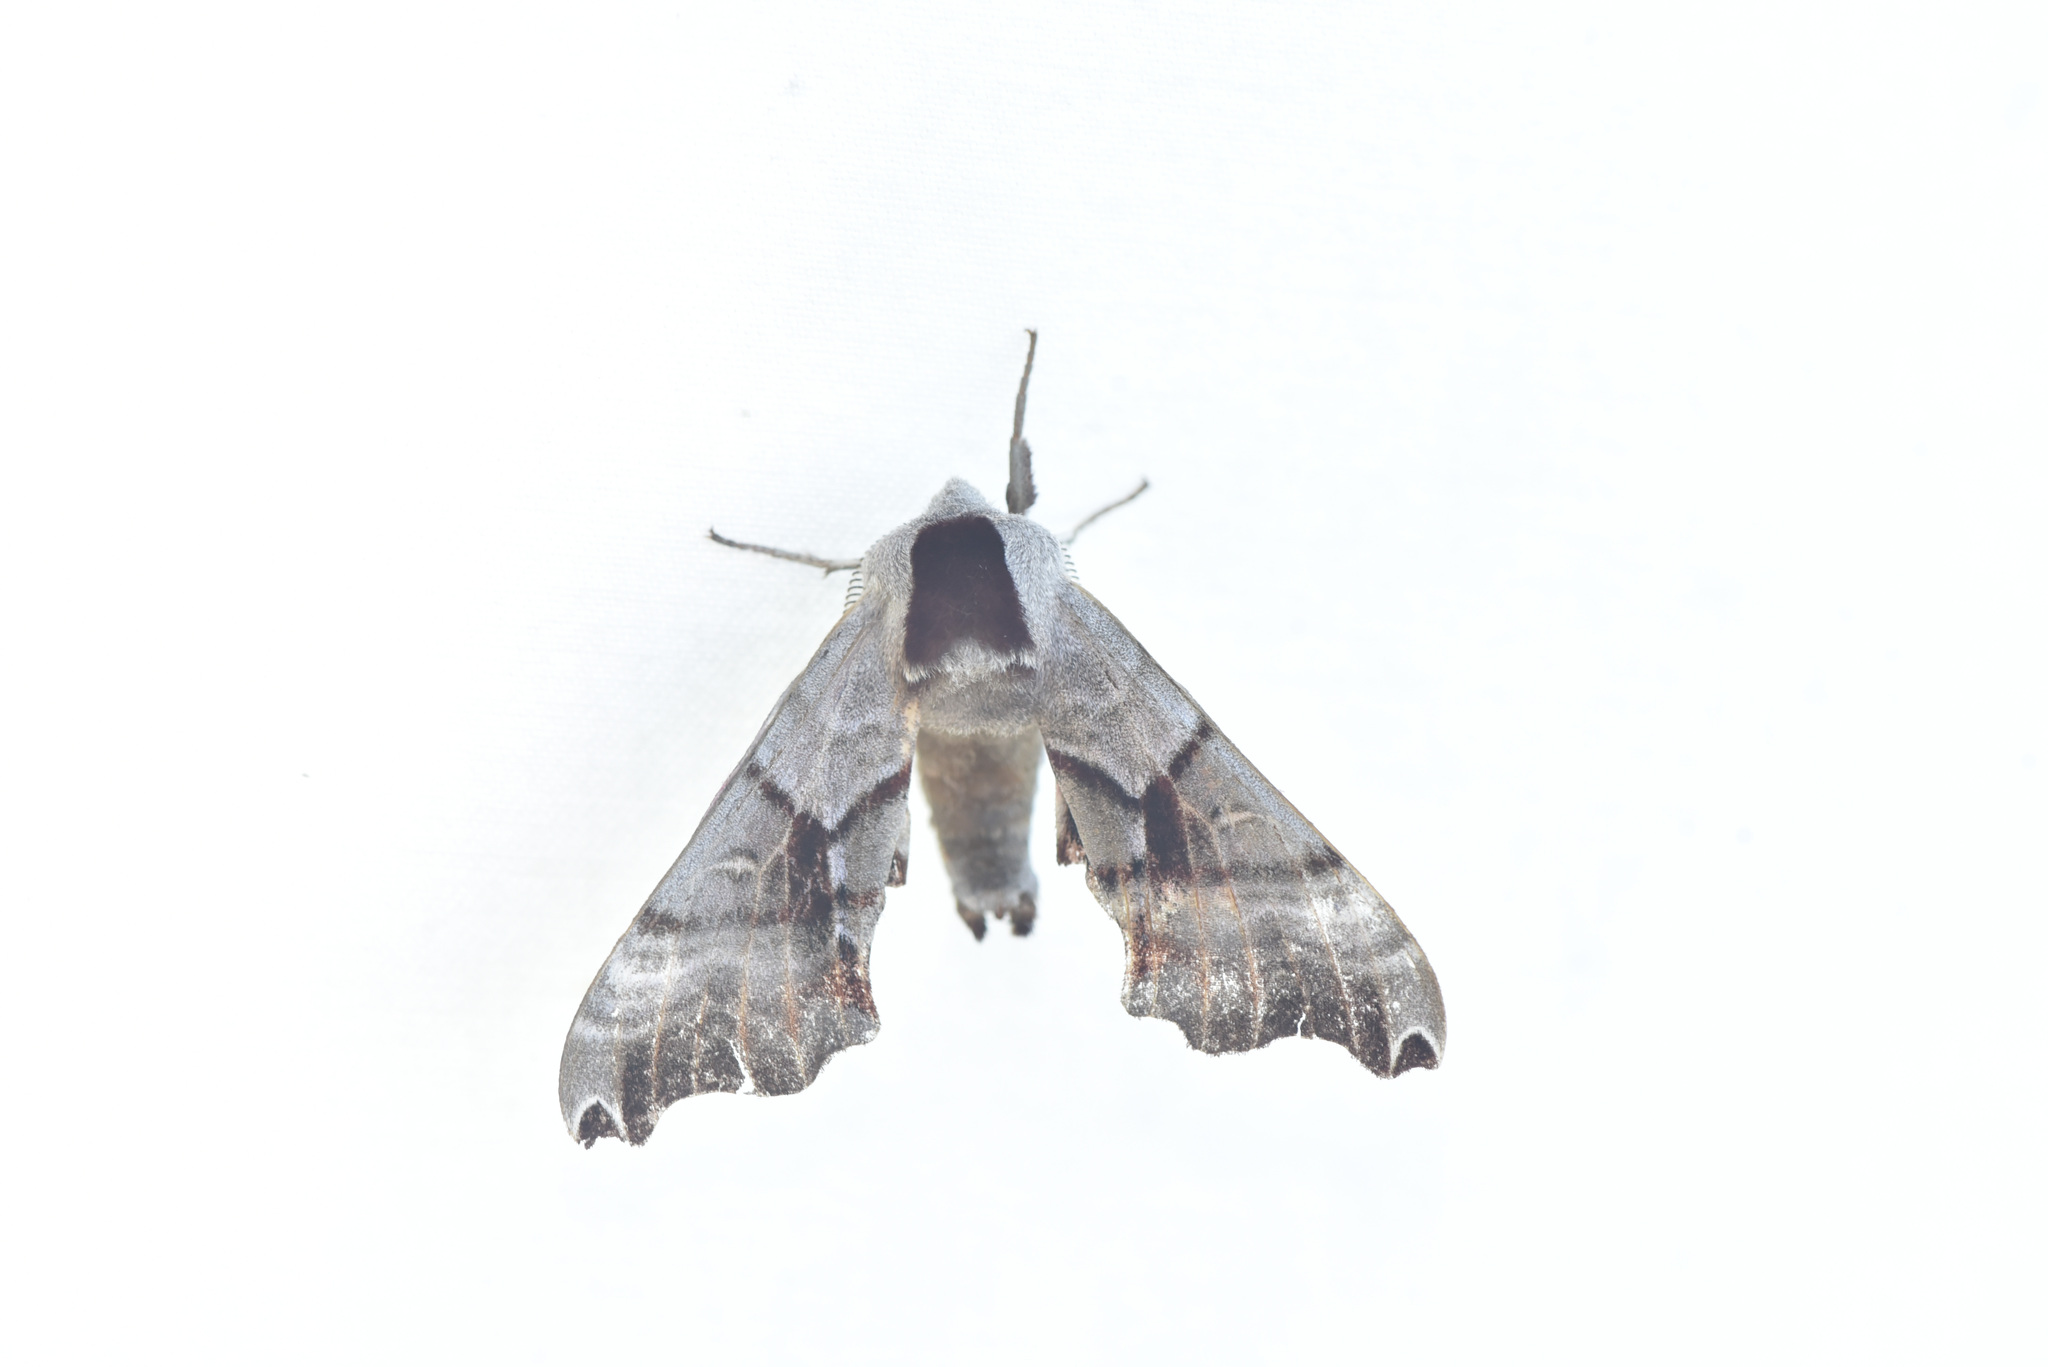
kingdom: Animalia
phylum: Arthropoda
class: Insecta
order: Lepidoptera
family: Sphingidae
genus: Smerinthus
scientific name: Smerinthus jamaicensis
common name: Twin spotted sphinx
